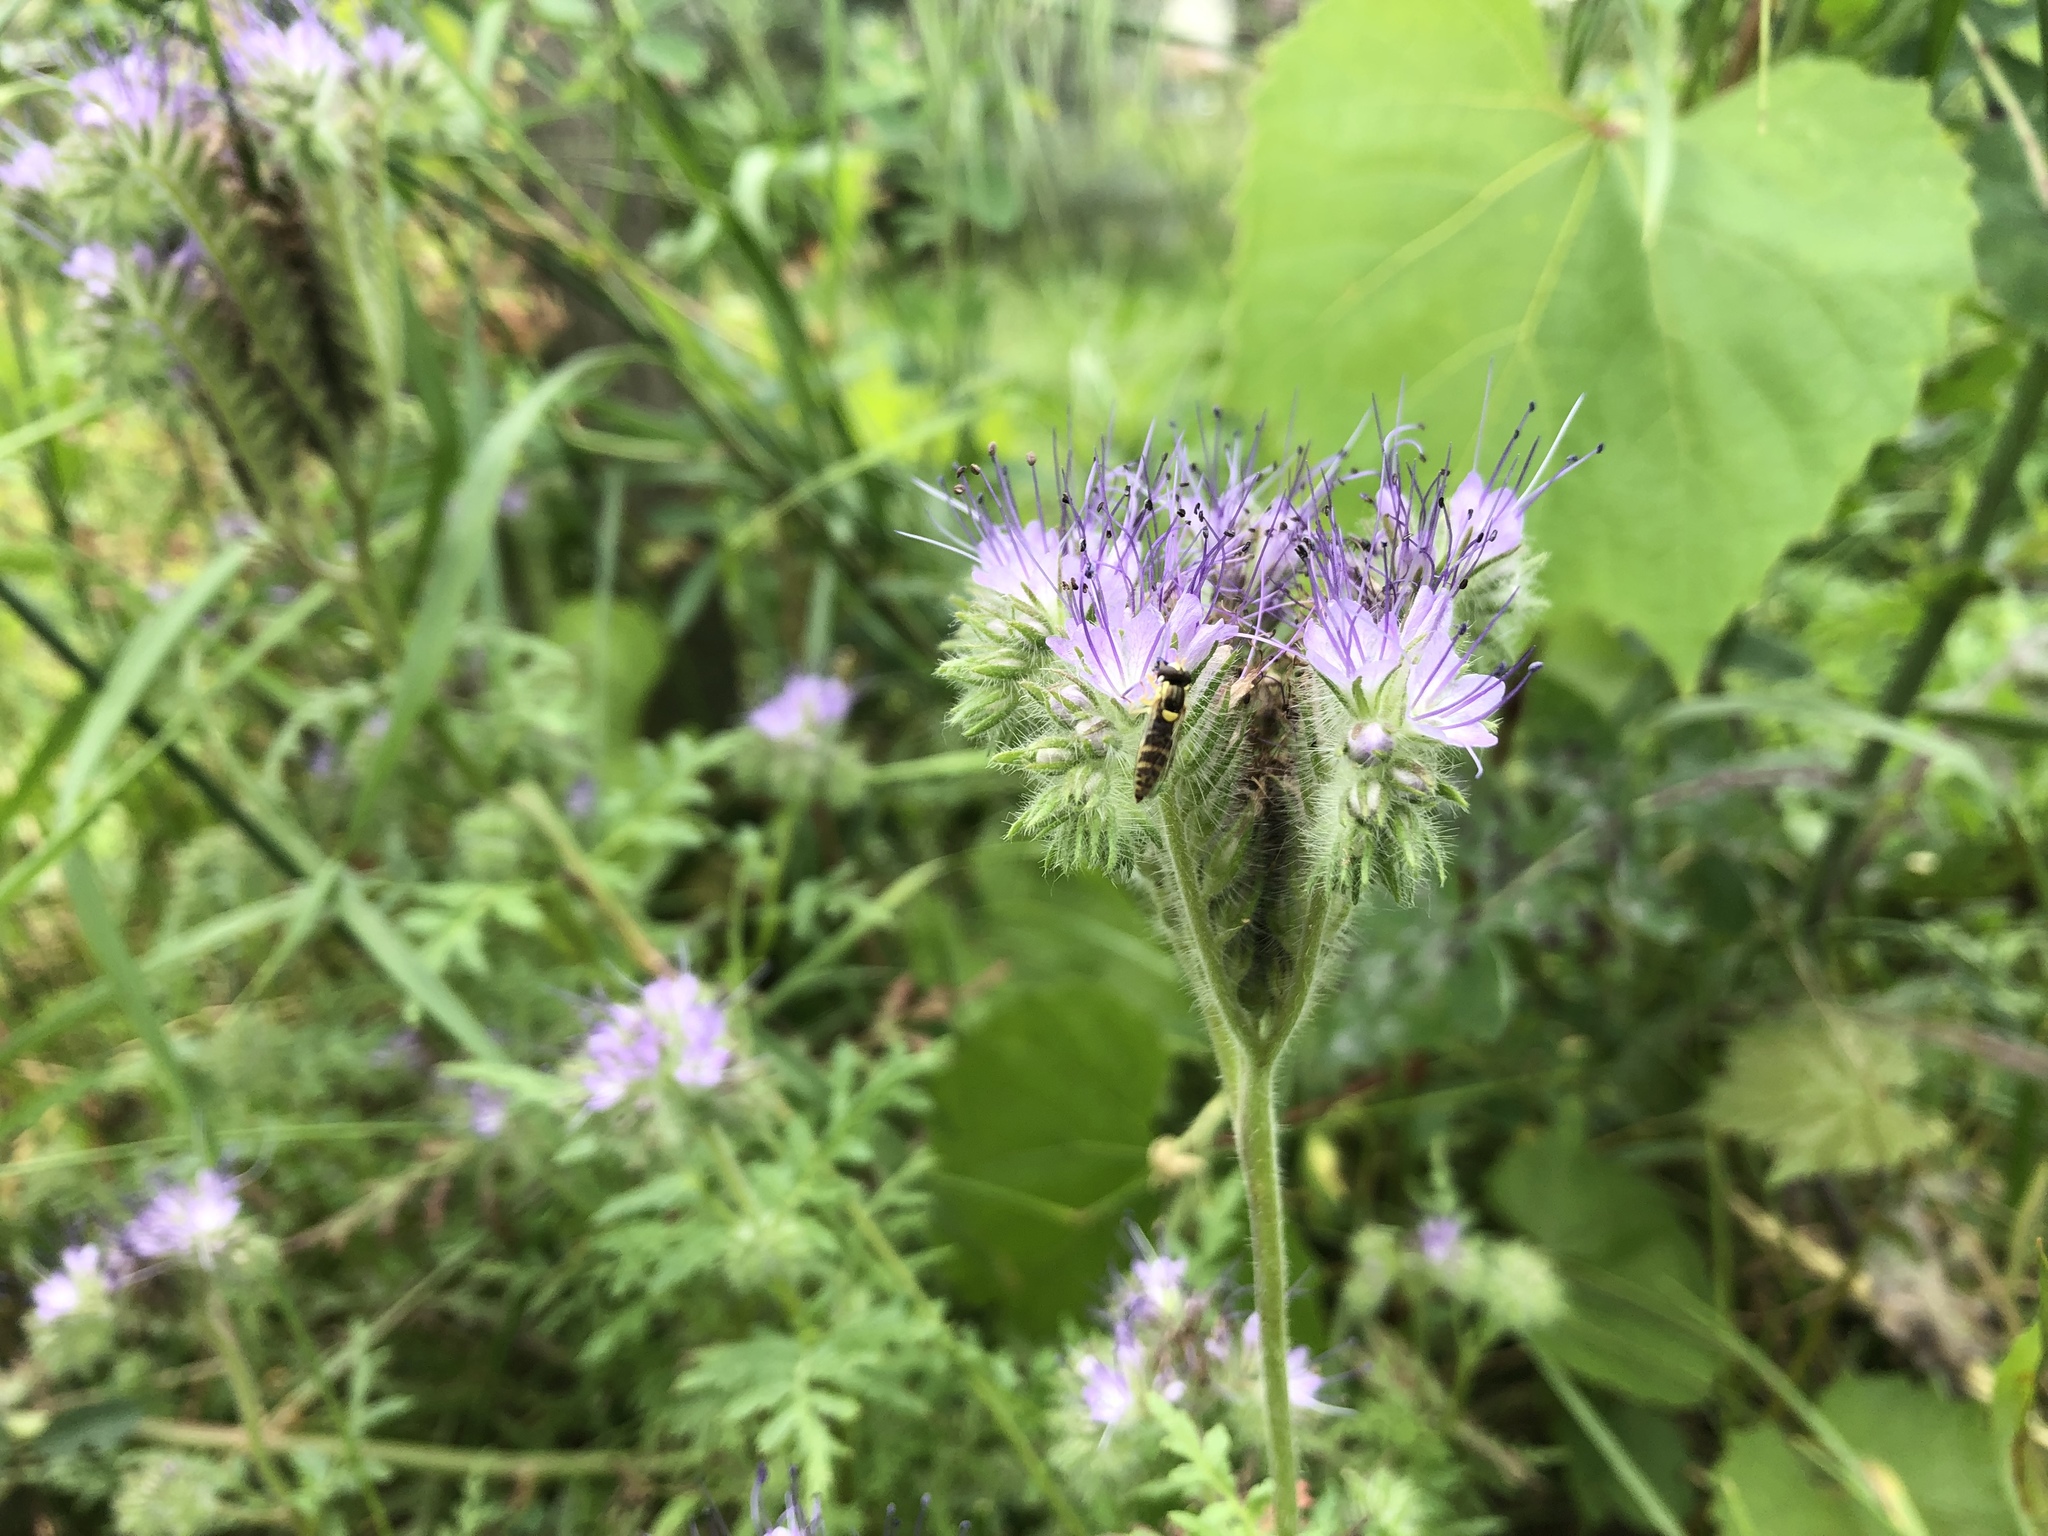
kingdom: Plantae
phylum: Tracheophyta
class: Magnoliopsida
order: Boraginales
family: Hydrophyllaceae
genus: Phacelia
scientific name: Phacelia tanacetifolia
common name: Phacelia
